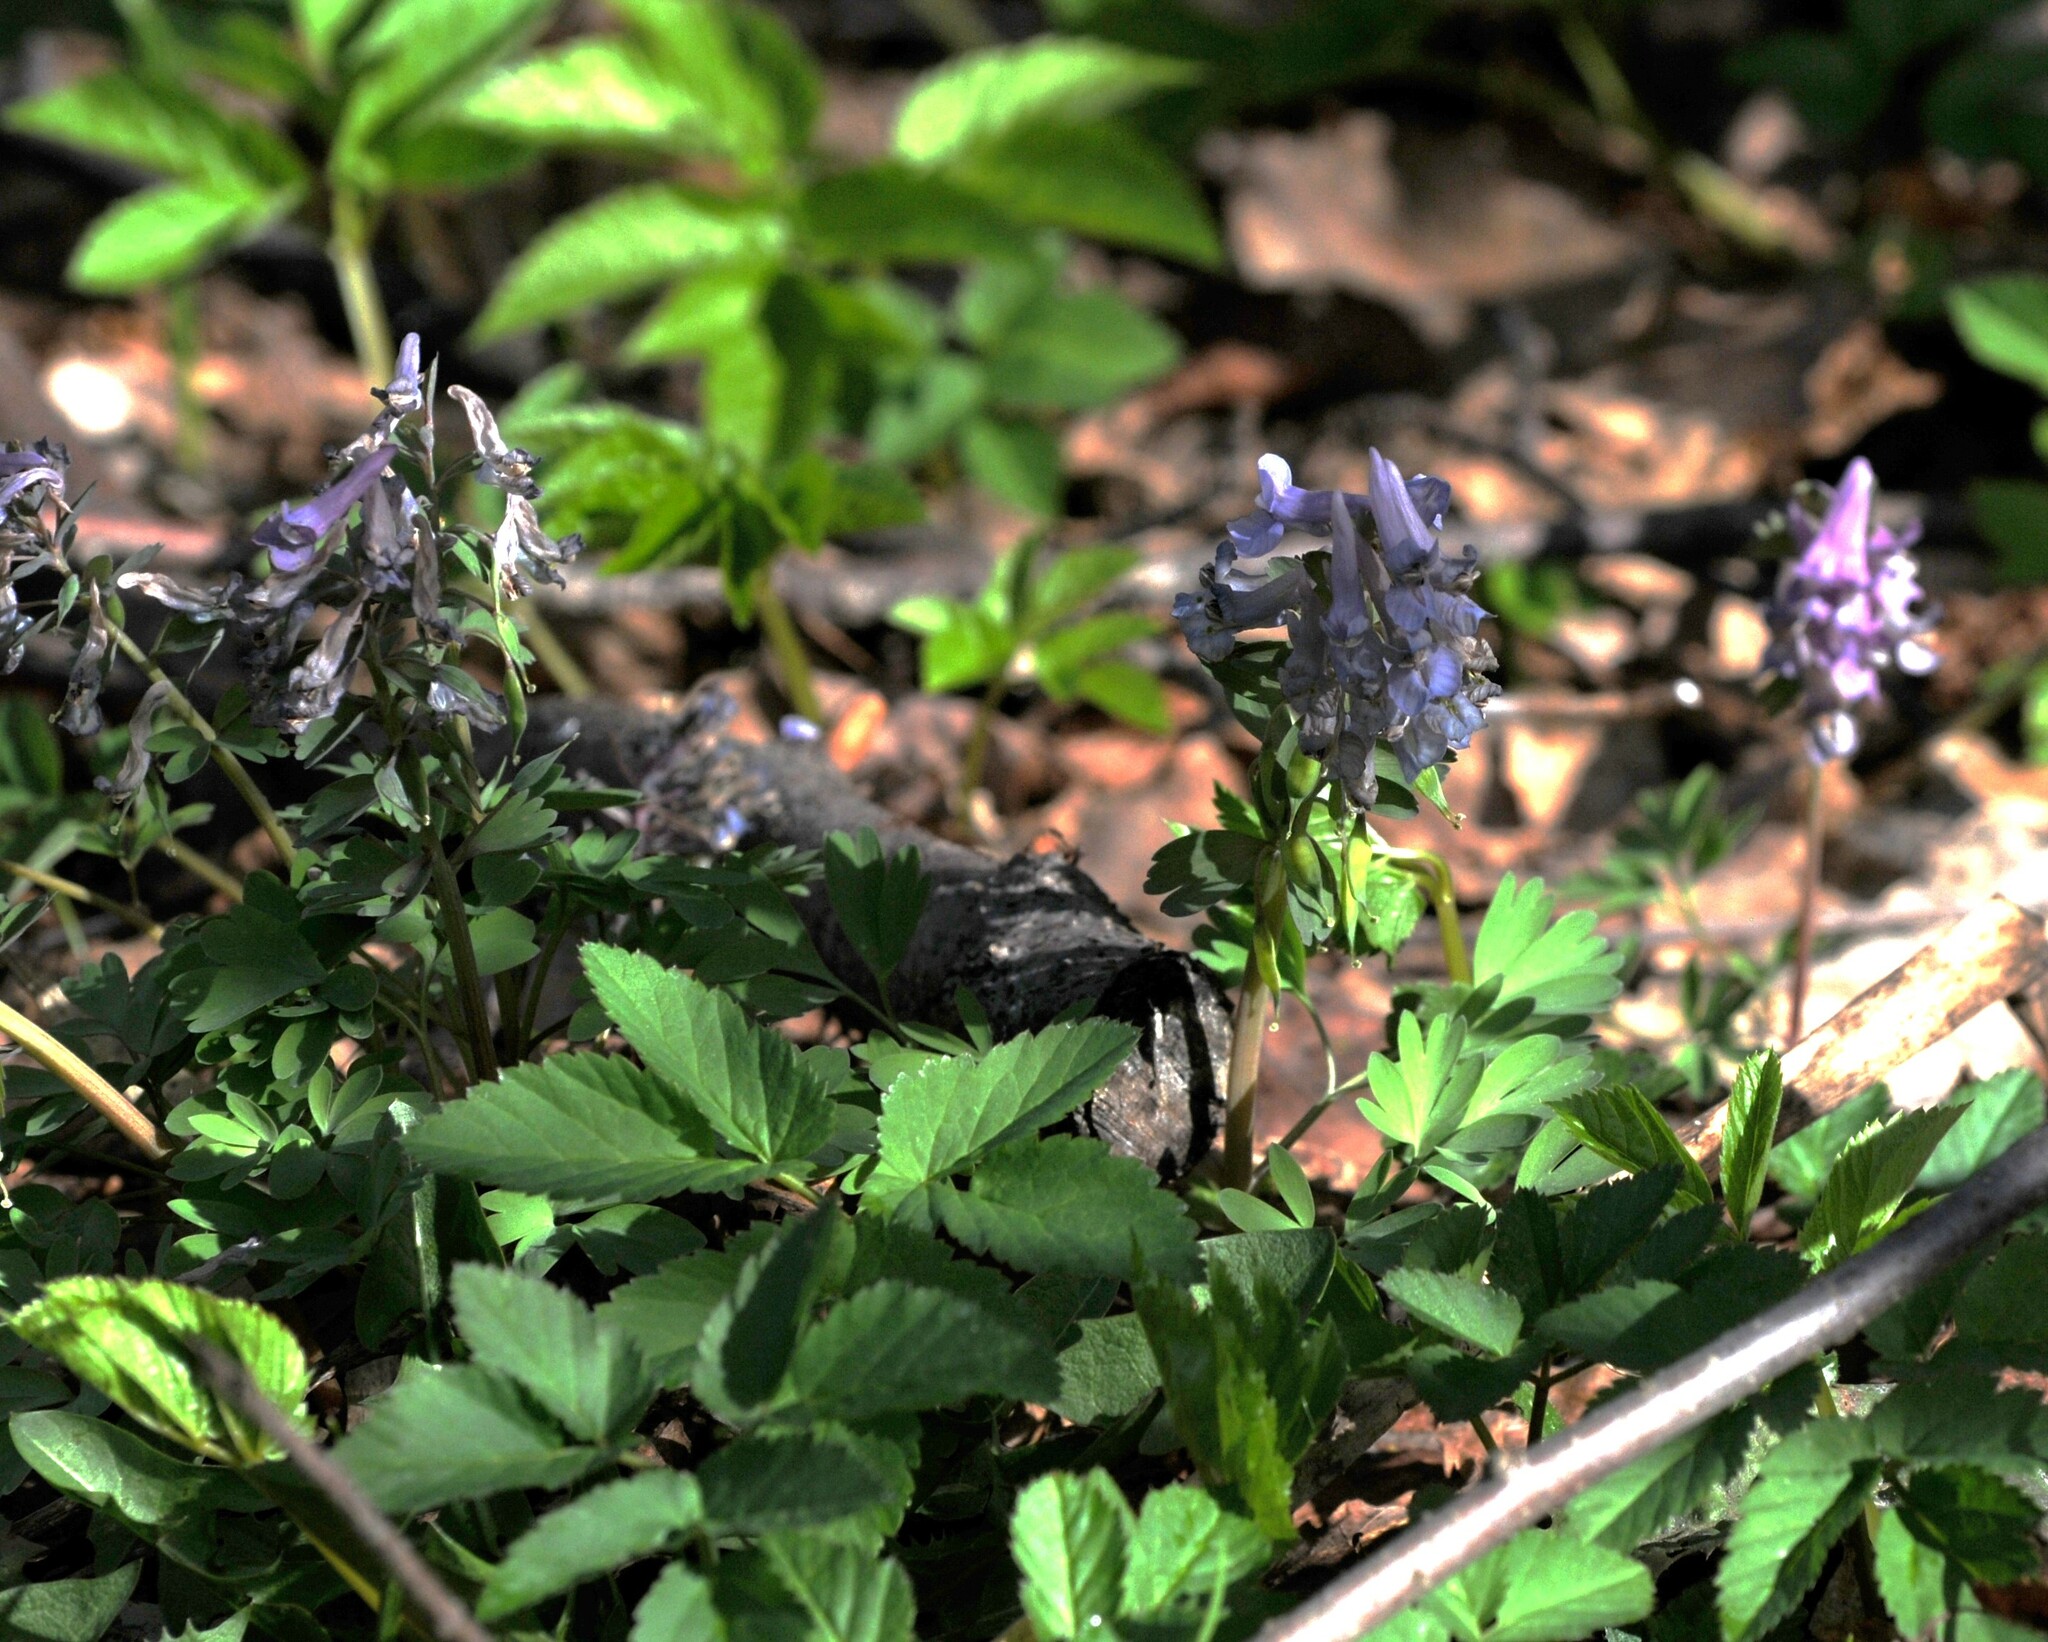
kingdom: Plantae
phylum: Tracheophyta
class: Magnoliopsida
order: Ranunculales
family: Papaveraceae
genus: Corydalis
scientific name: Corydalis solida
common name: Bird-in-a-bush
